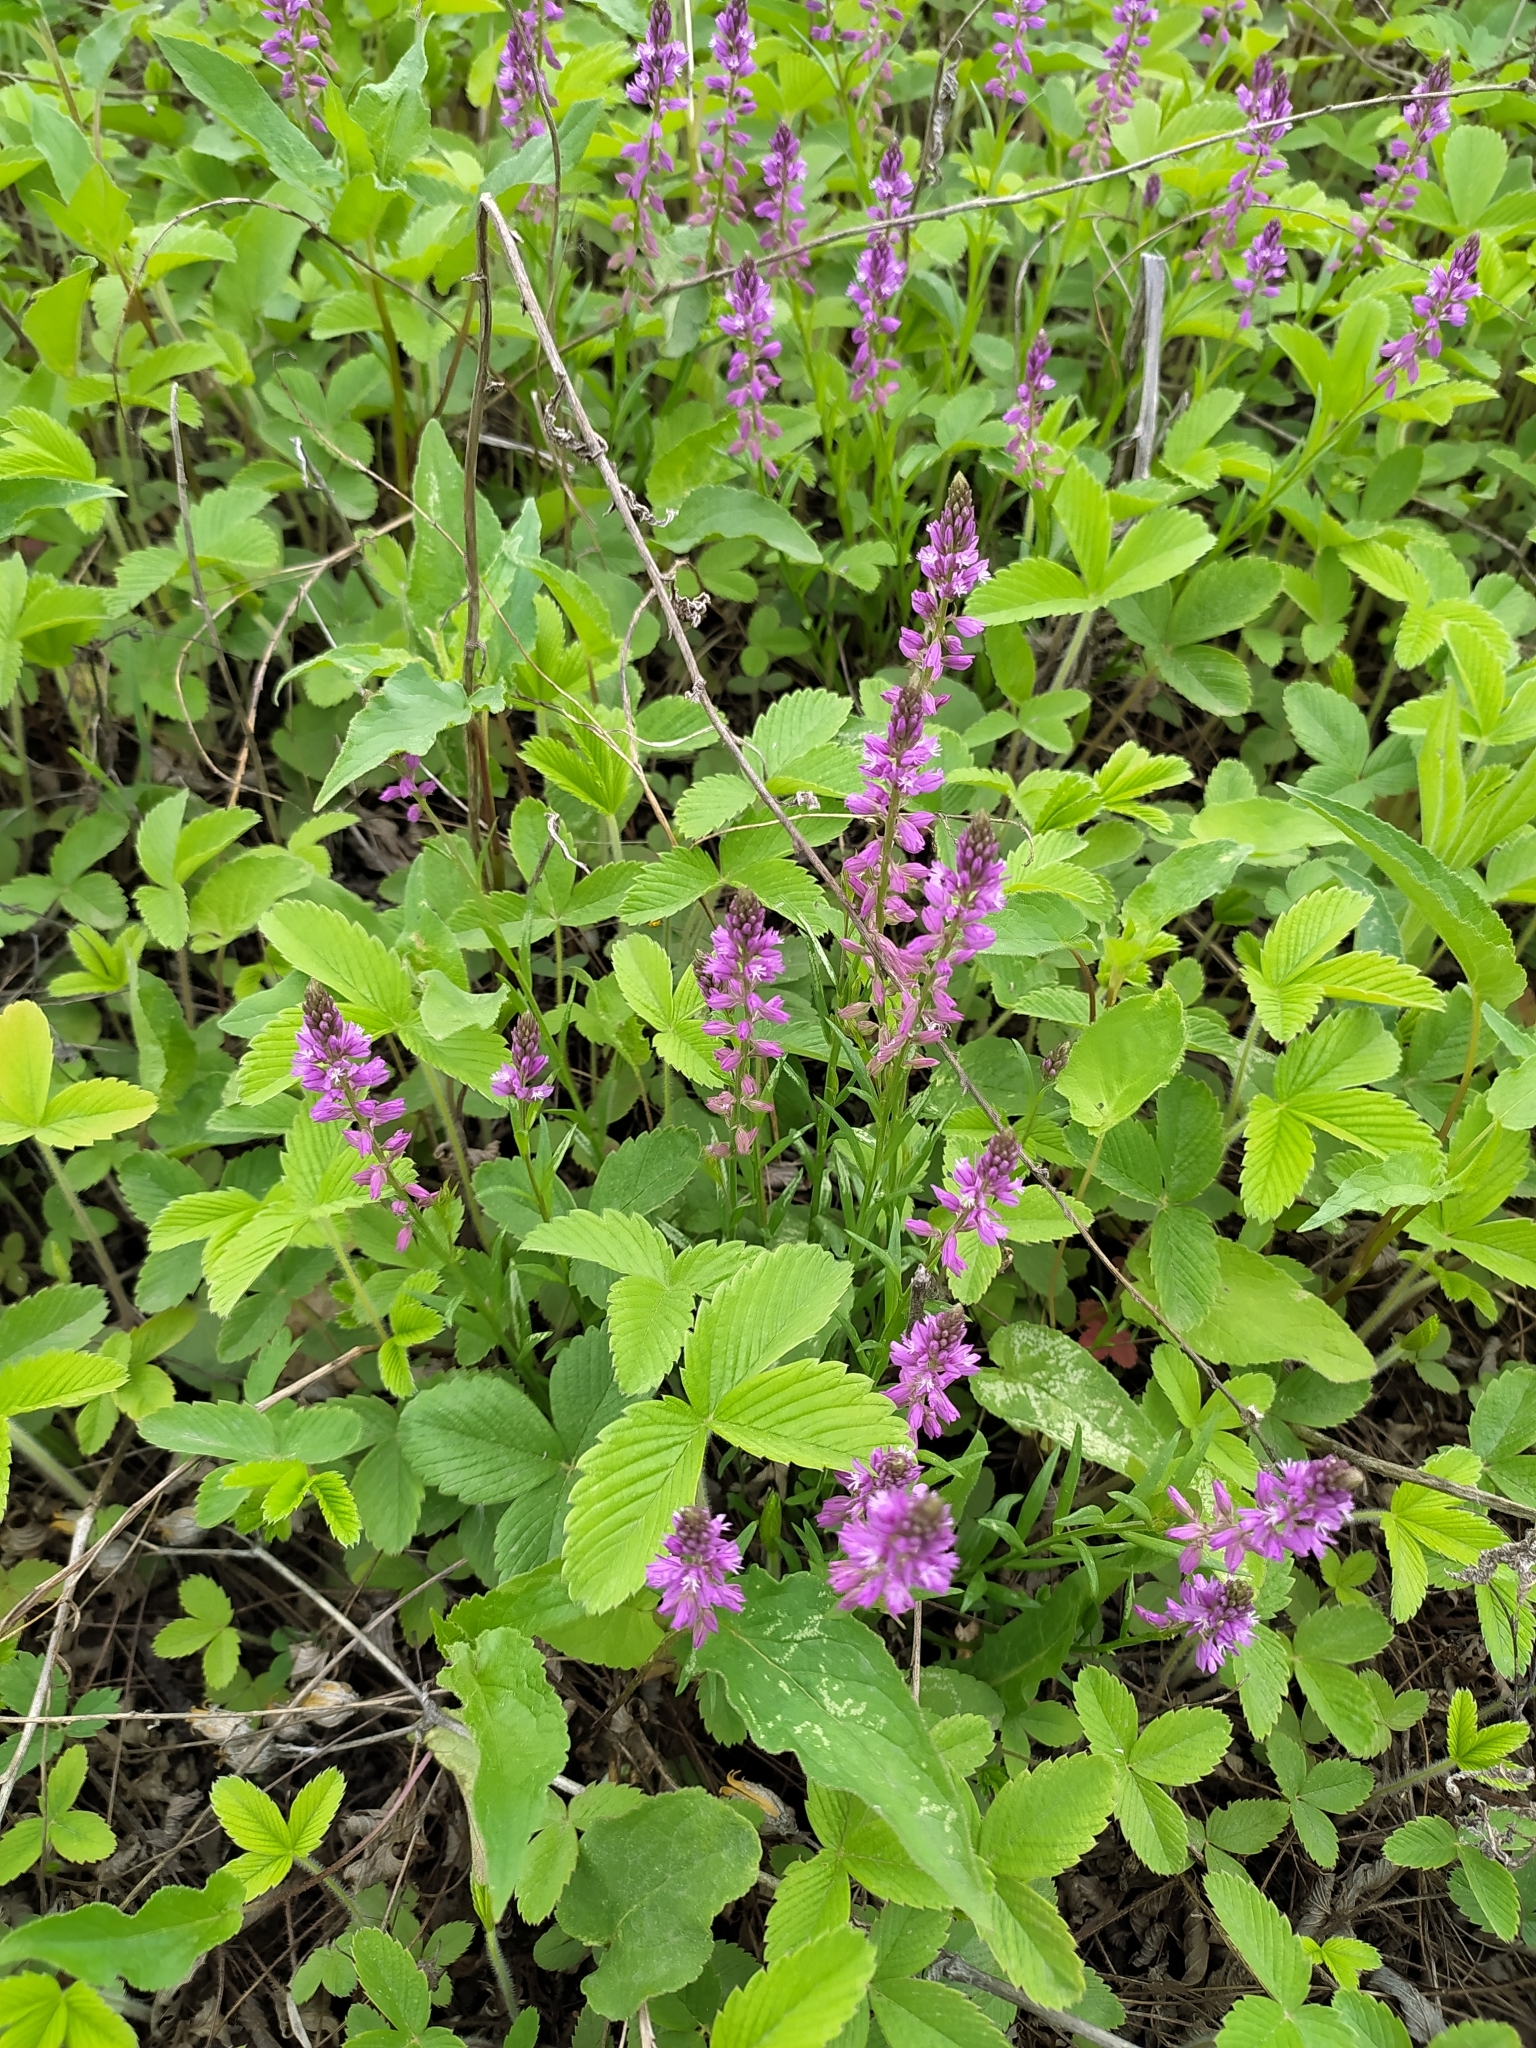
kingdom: Plantae
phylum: Tracheophyta
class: Magnoliopsida
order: Fabales
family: Polygalaceae
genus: Polygala
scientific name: Polygala comosa
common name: Tufted milkwort
